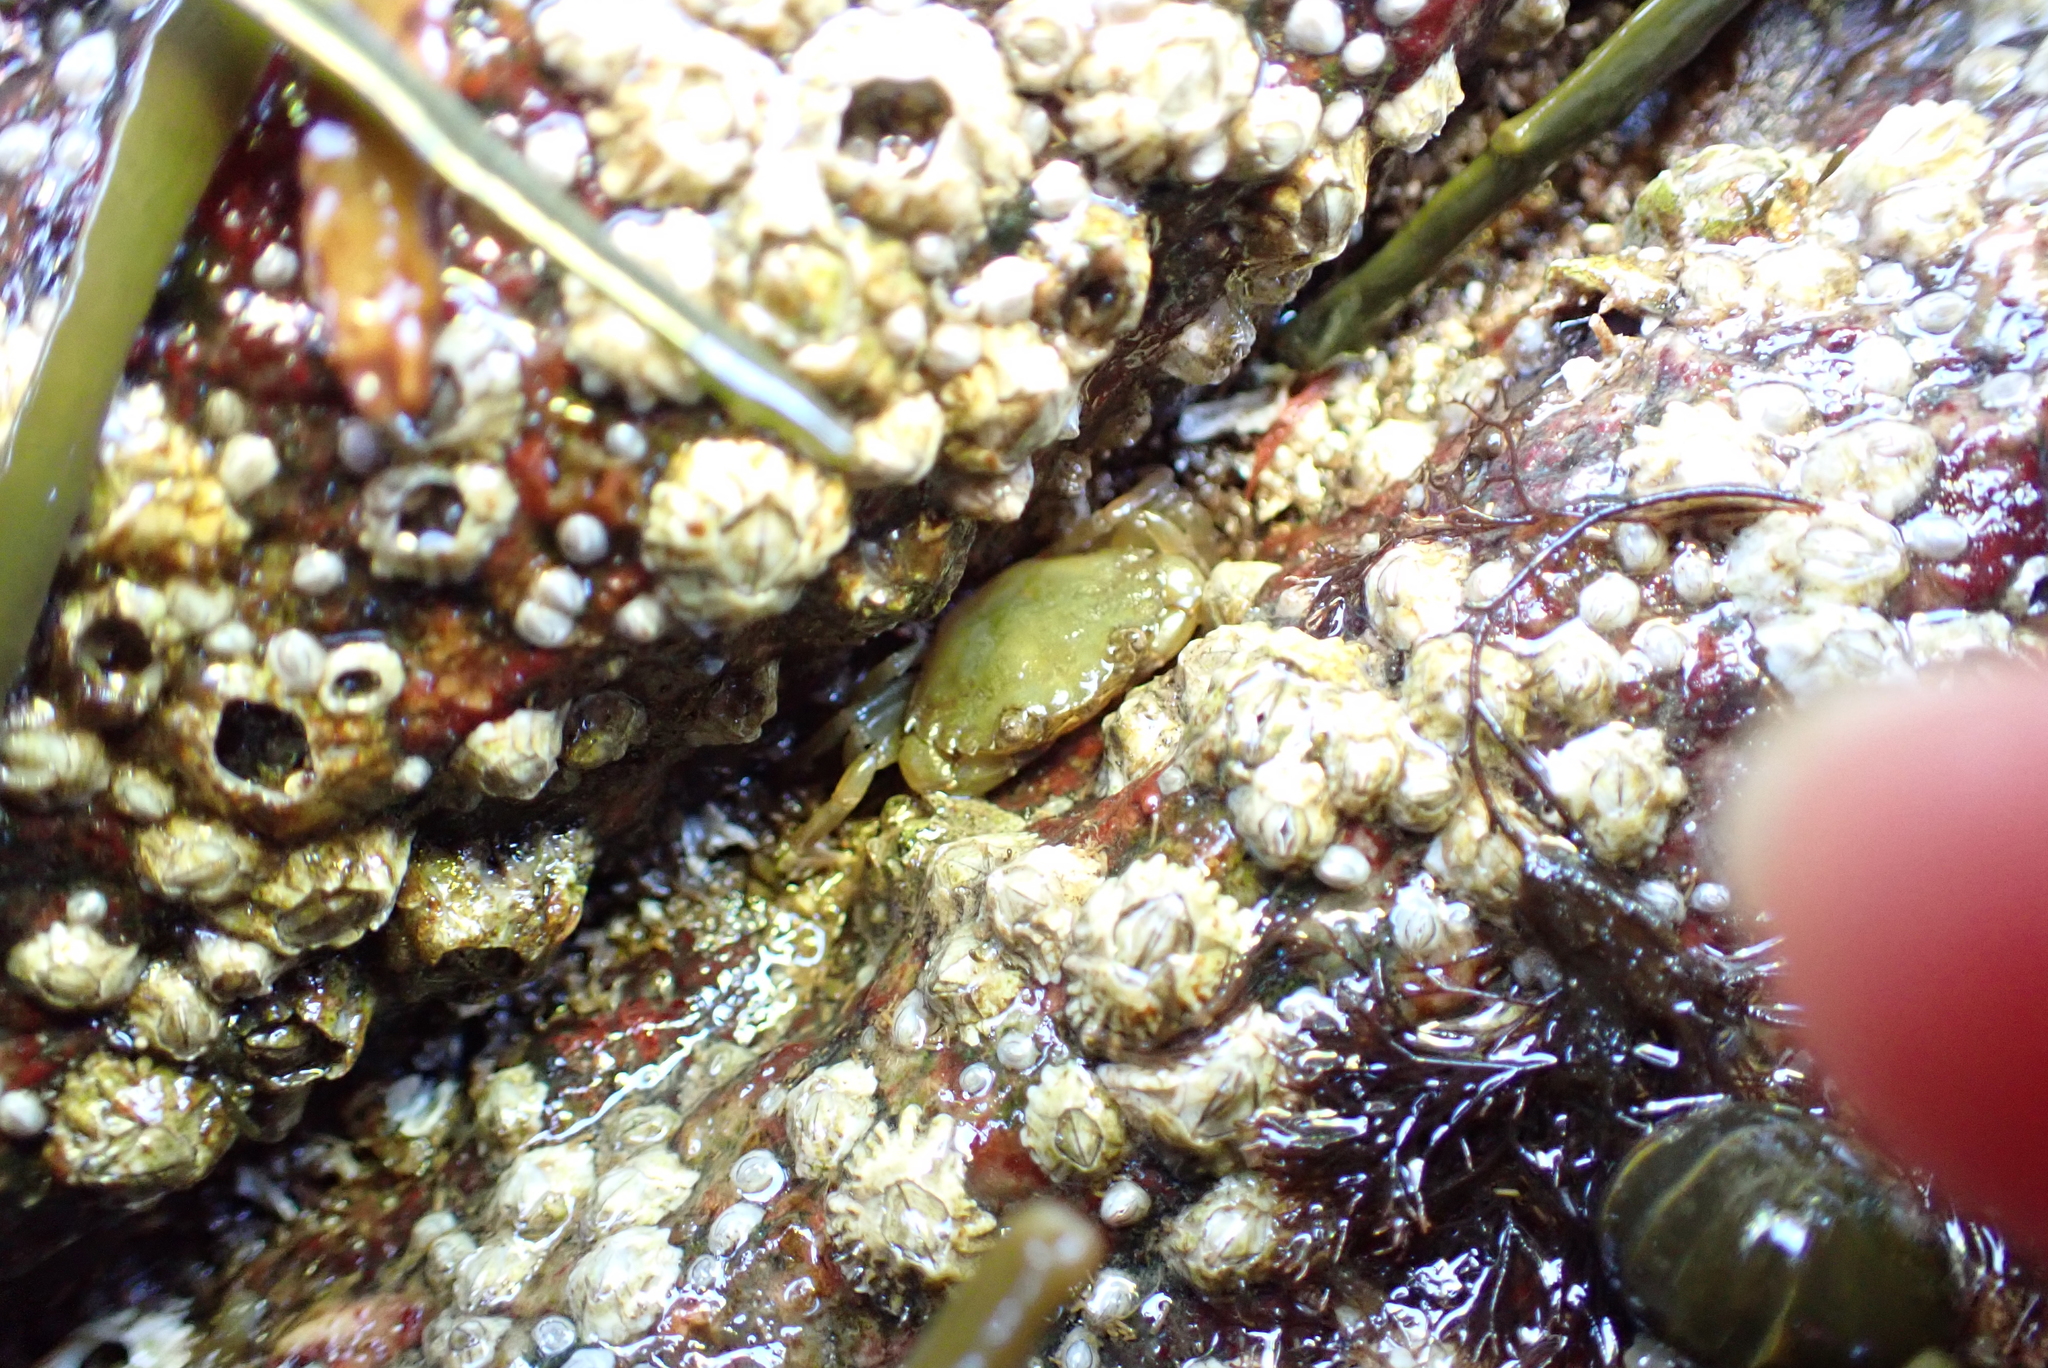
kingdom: Animalia
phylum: Arthropoda
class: Malacostraca
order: Decapoda
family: Carcinidae
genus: Carcinus
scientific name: Carcinus maenas
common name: European green crab
